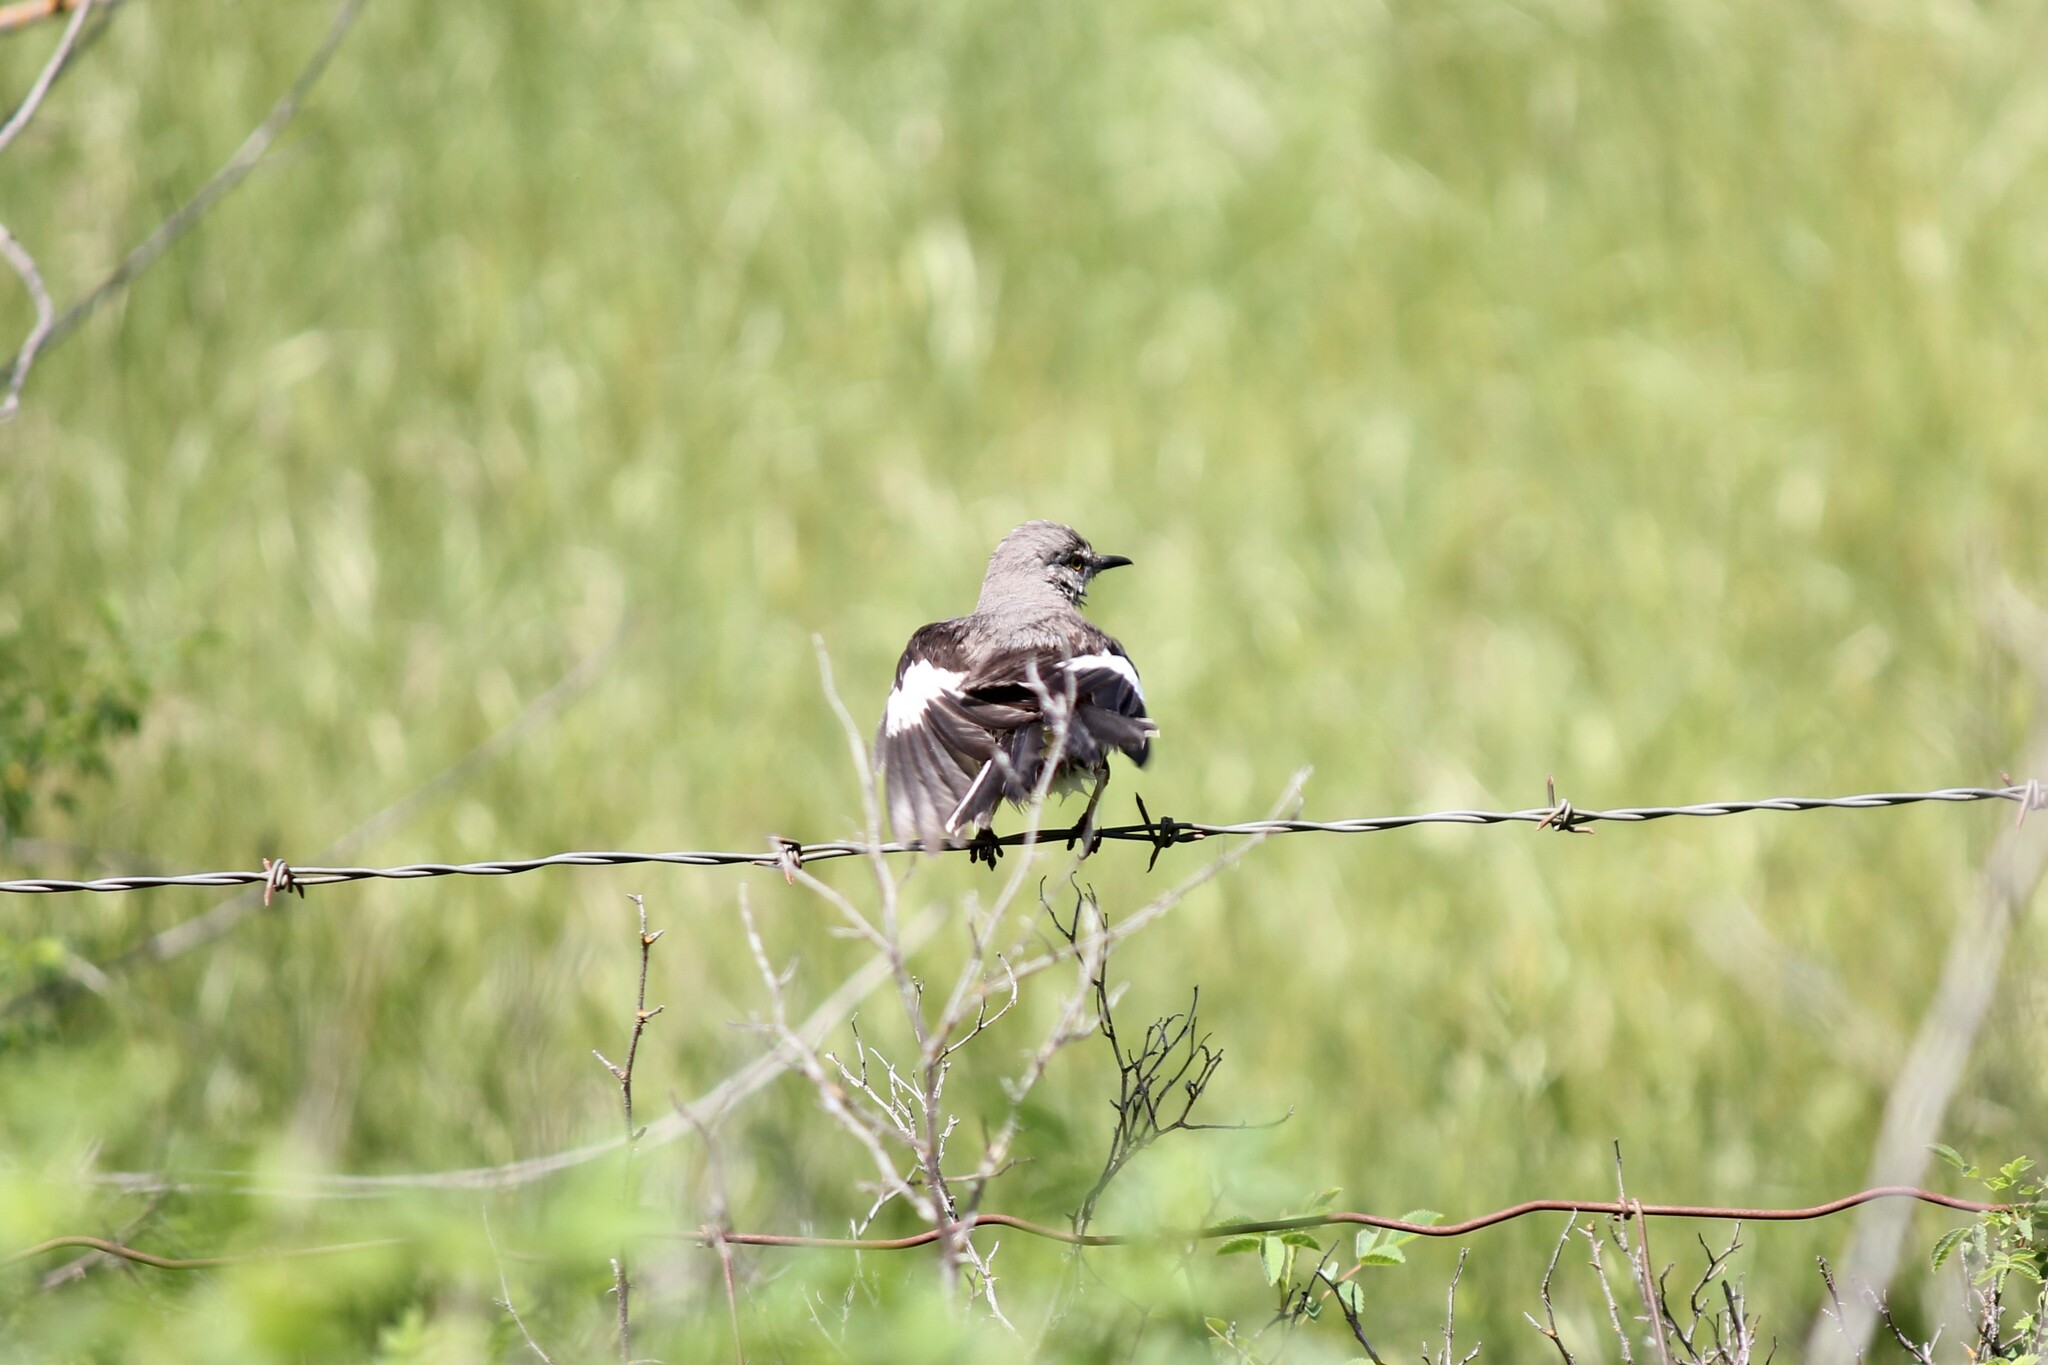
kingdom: Animalia
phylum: Chordata
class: Aves
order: Passeriformes
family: Mimidae
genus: Mimus
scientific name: Mimus polyglottos
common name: Northern mockingbird
